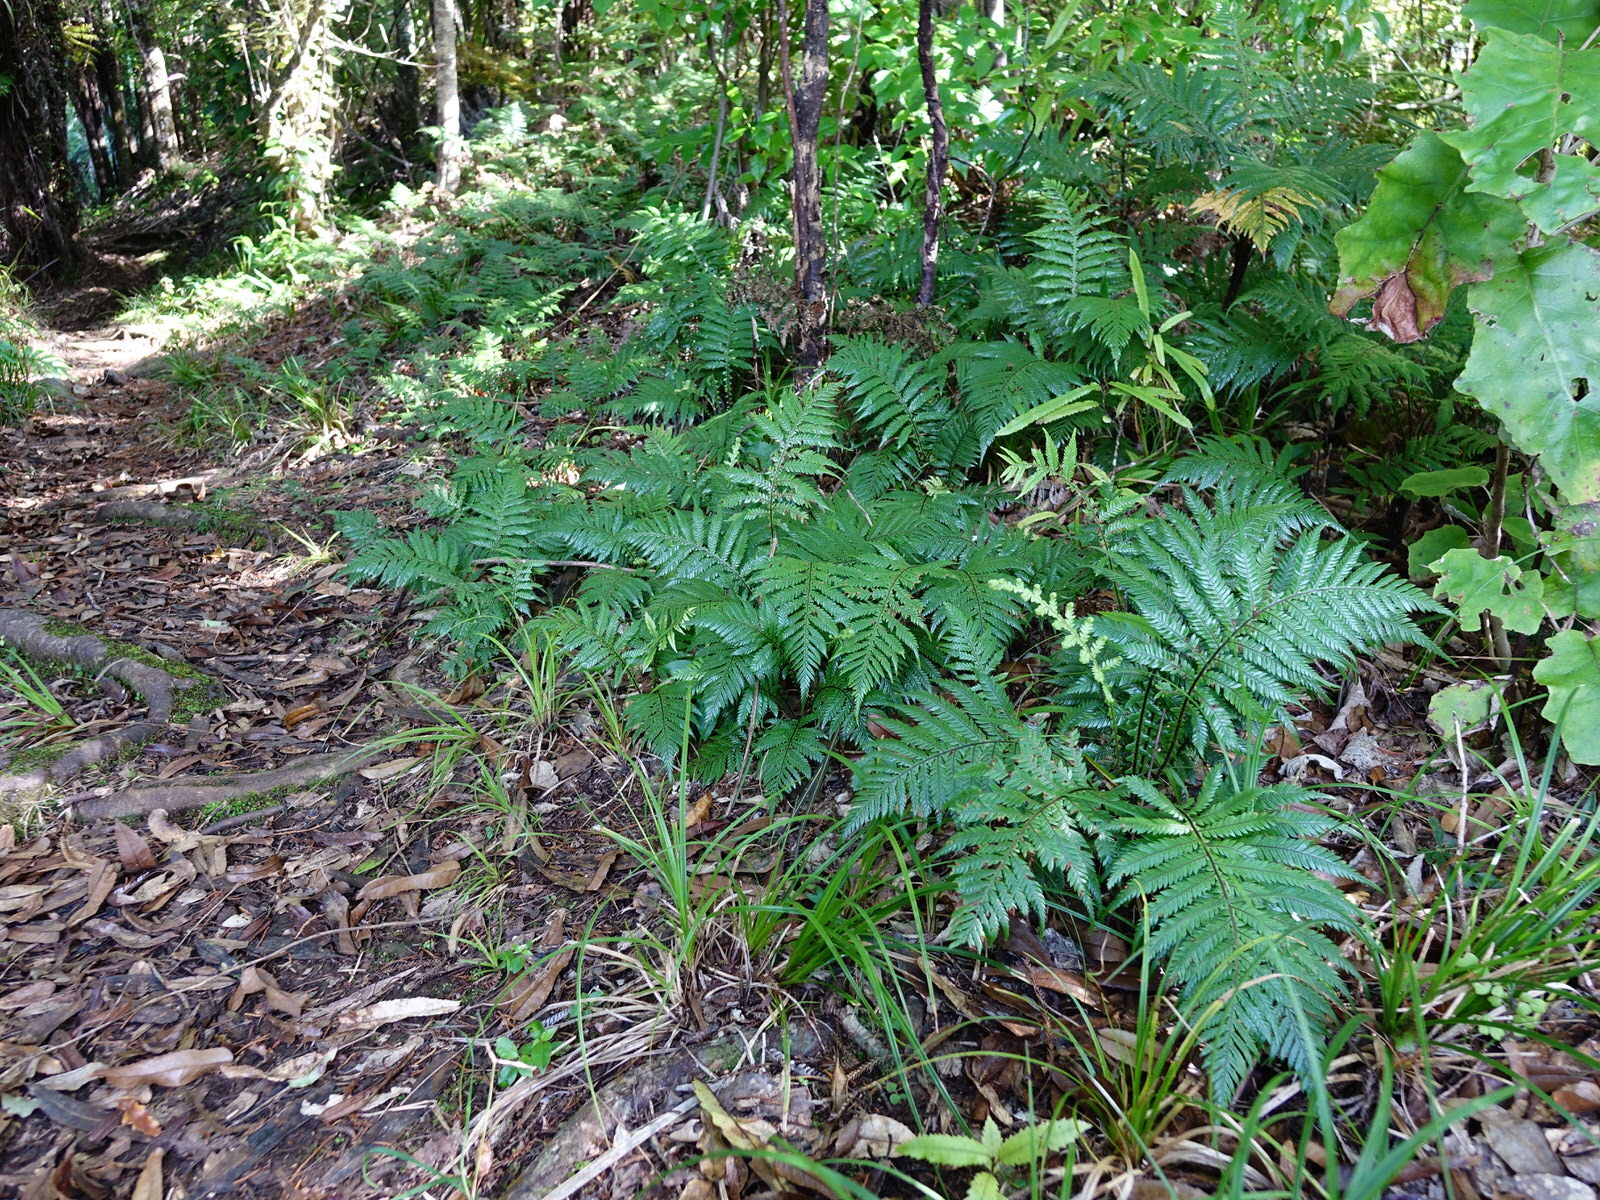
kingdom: Plantae
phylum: Tracheophyta
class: Polypodiopsida
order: Polypodiales
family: Blechnaceae
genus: Diploblechnum
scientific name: Diploblechnum fraseri
